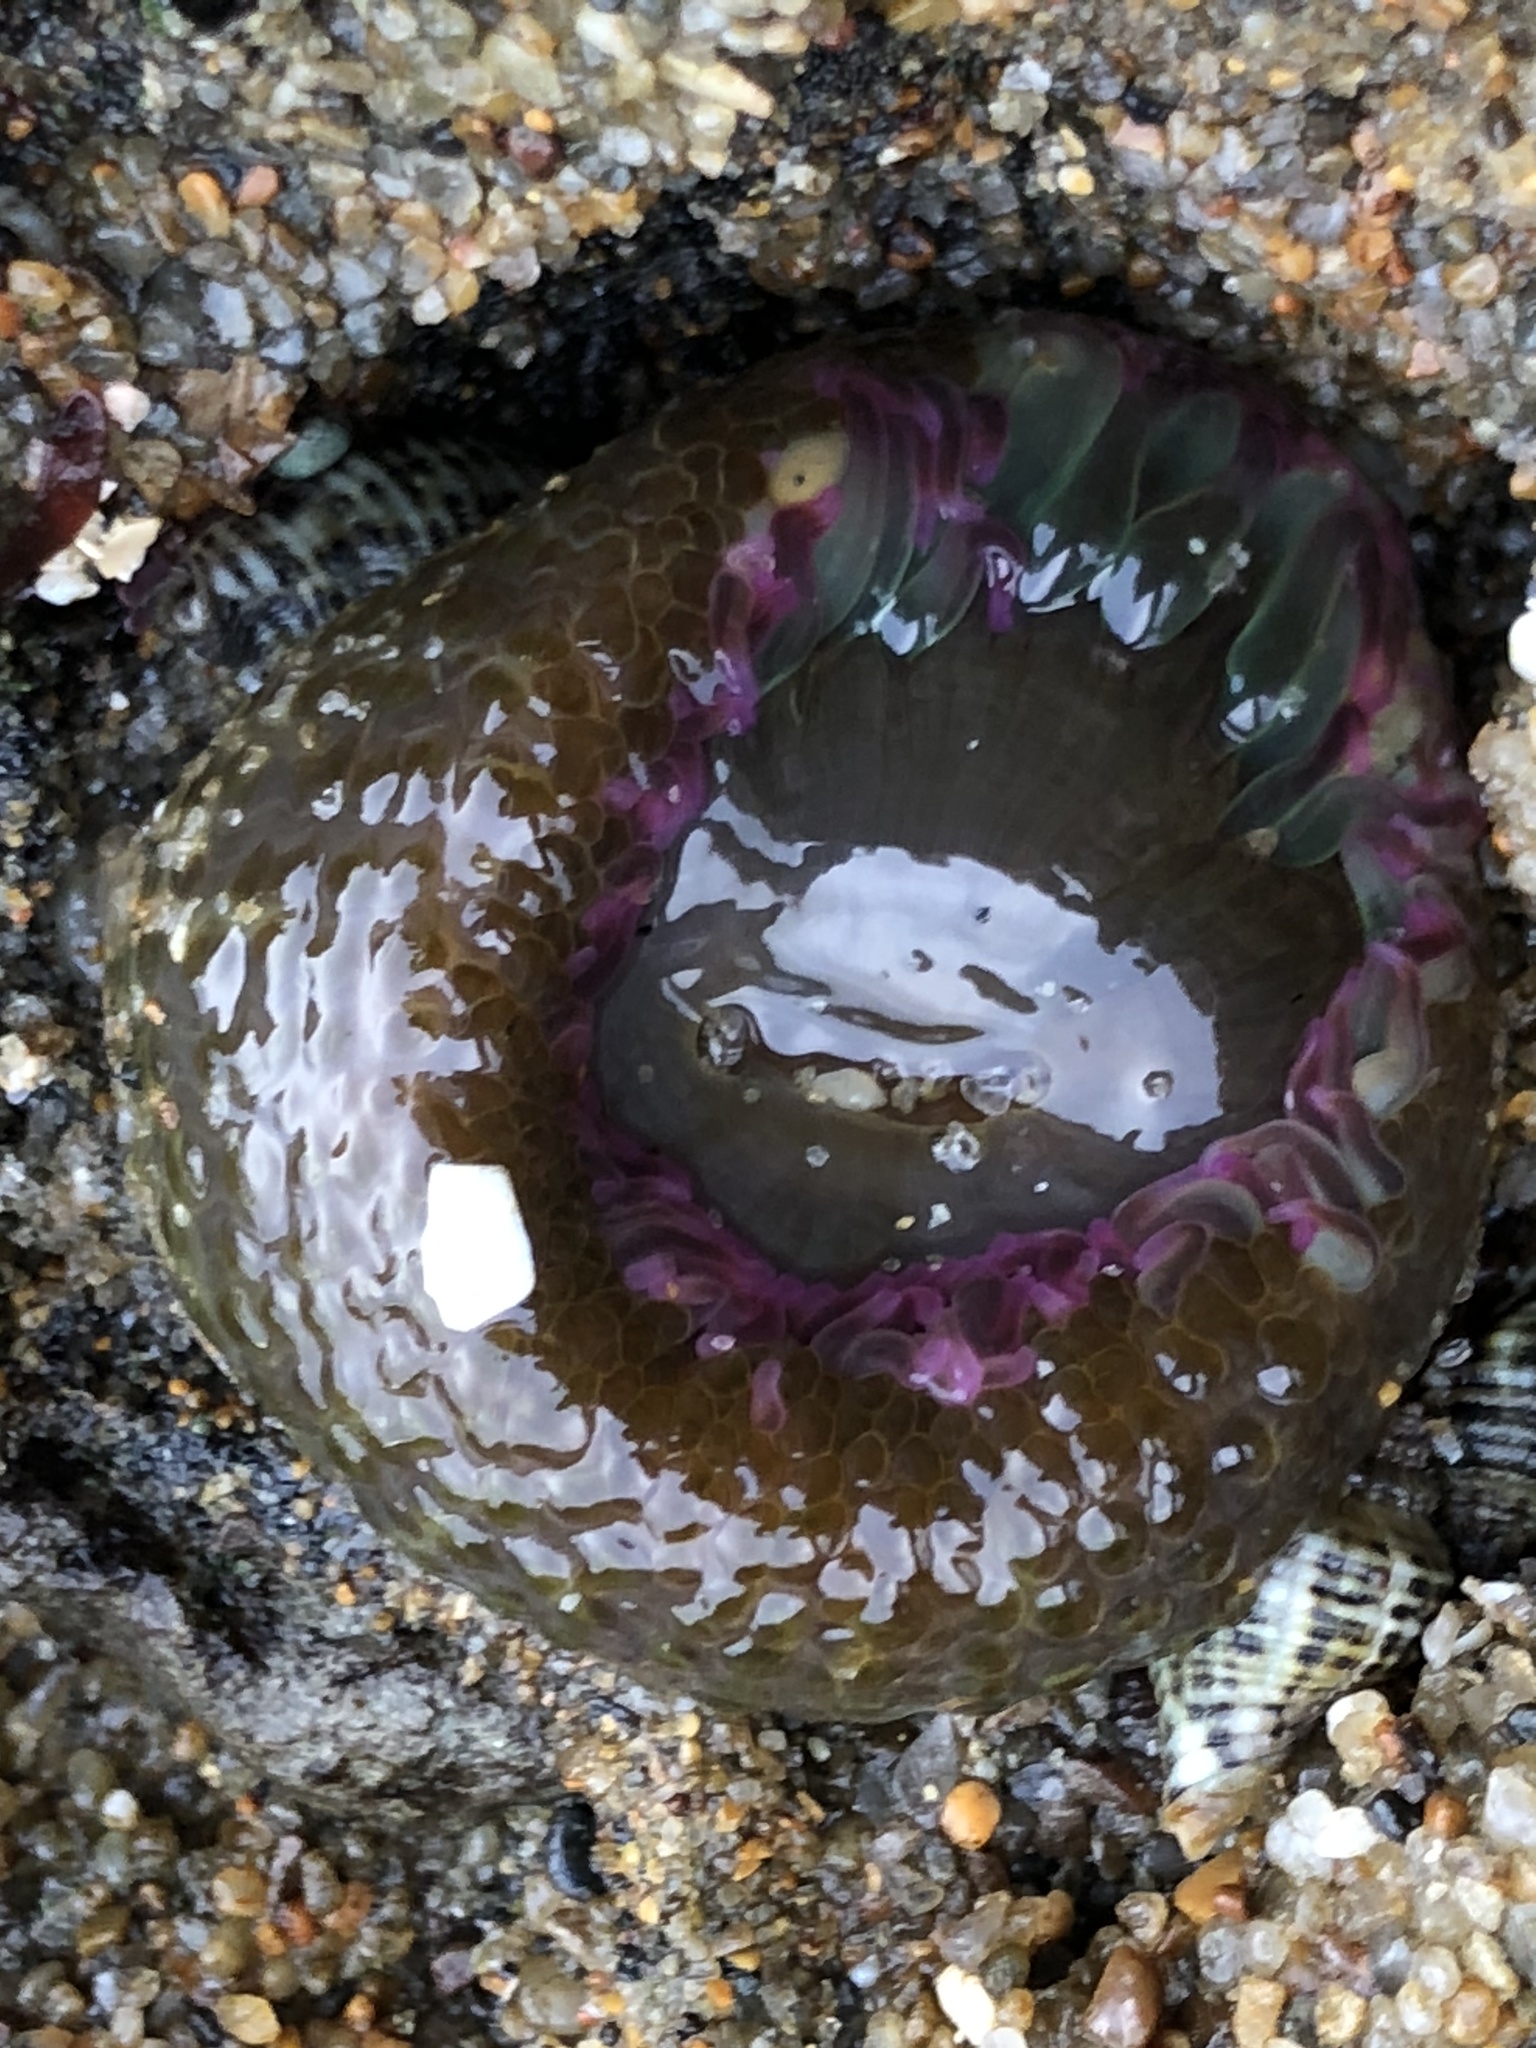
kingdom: Animalia
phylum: Cnidaria
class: Anthozoa
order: Actiniaria
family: Actiniidae
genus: Anthopleura
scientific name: Anthopleura elegantissima
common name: Clonal anemone
